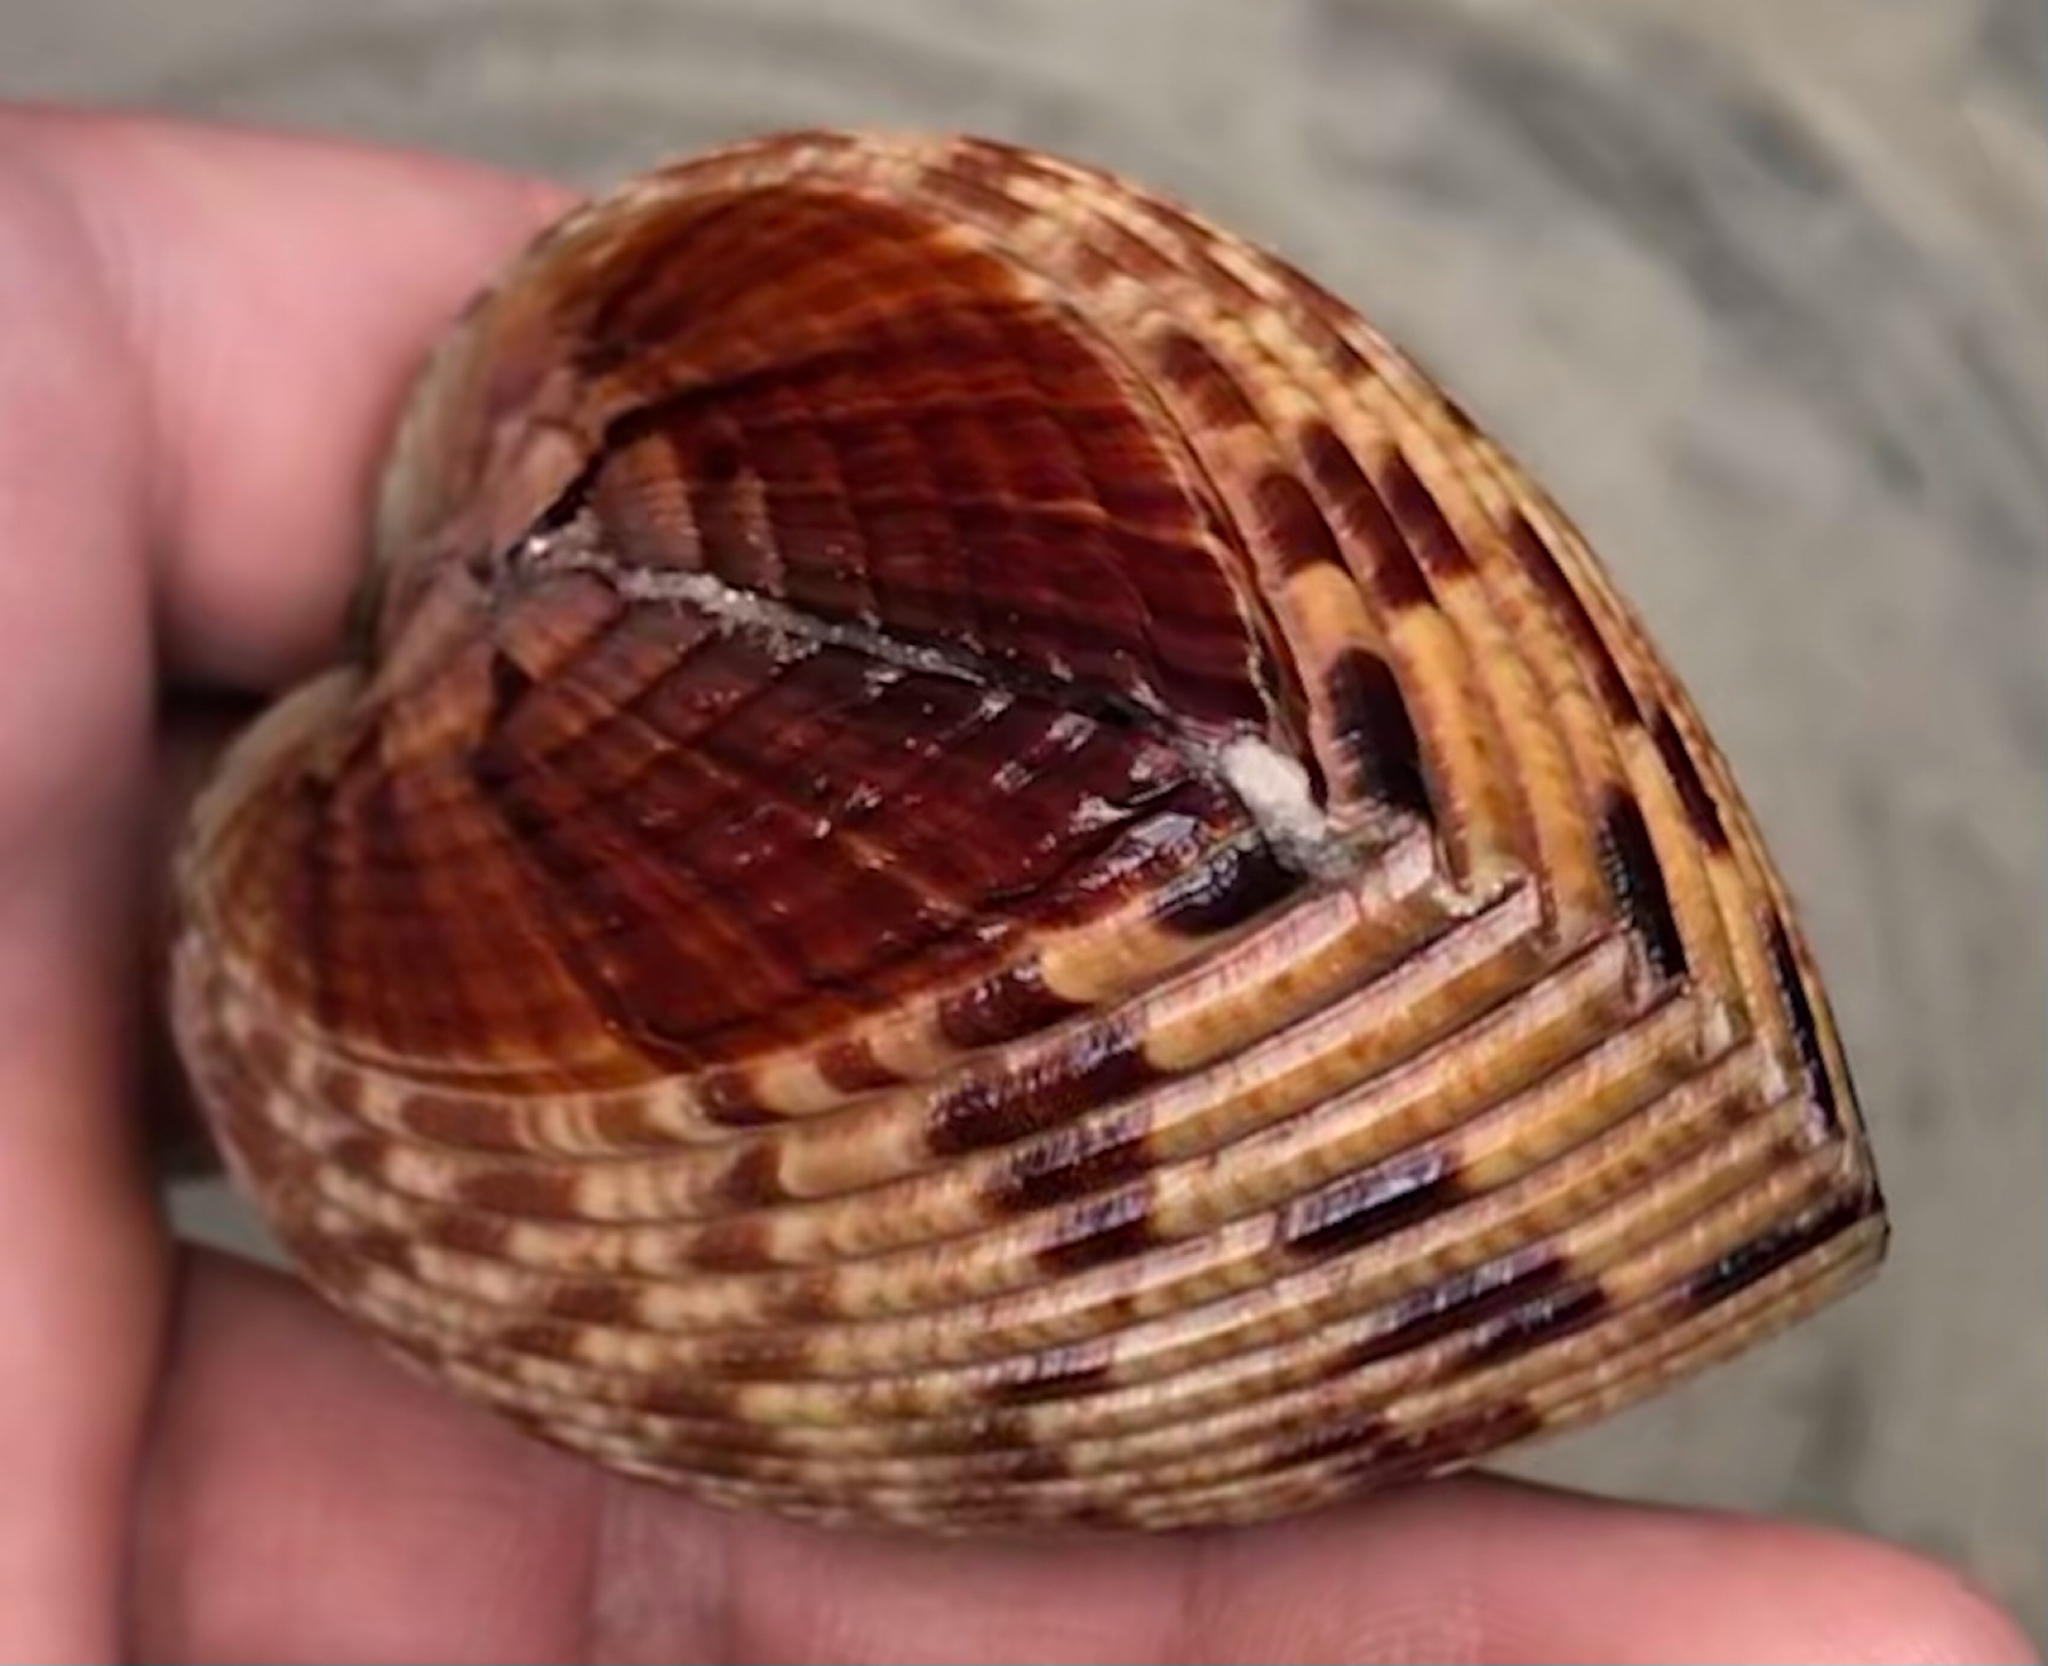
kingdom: Animalia
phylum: Mollusca
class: Bivalvia
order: Cardiida
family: Cardiidae
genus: Dinocardium
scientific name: Dinocardium robustum
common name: Atlantic giant cockle
